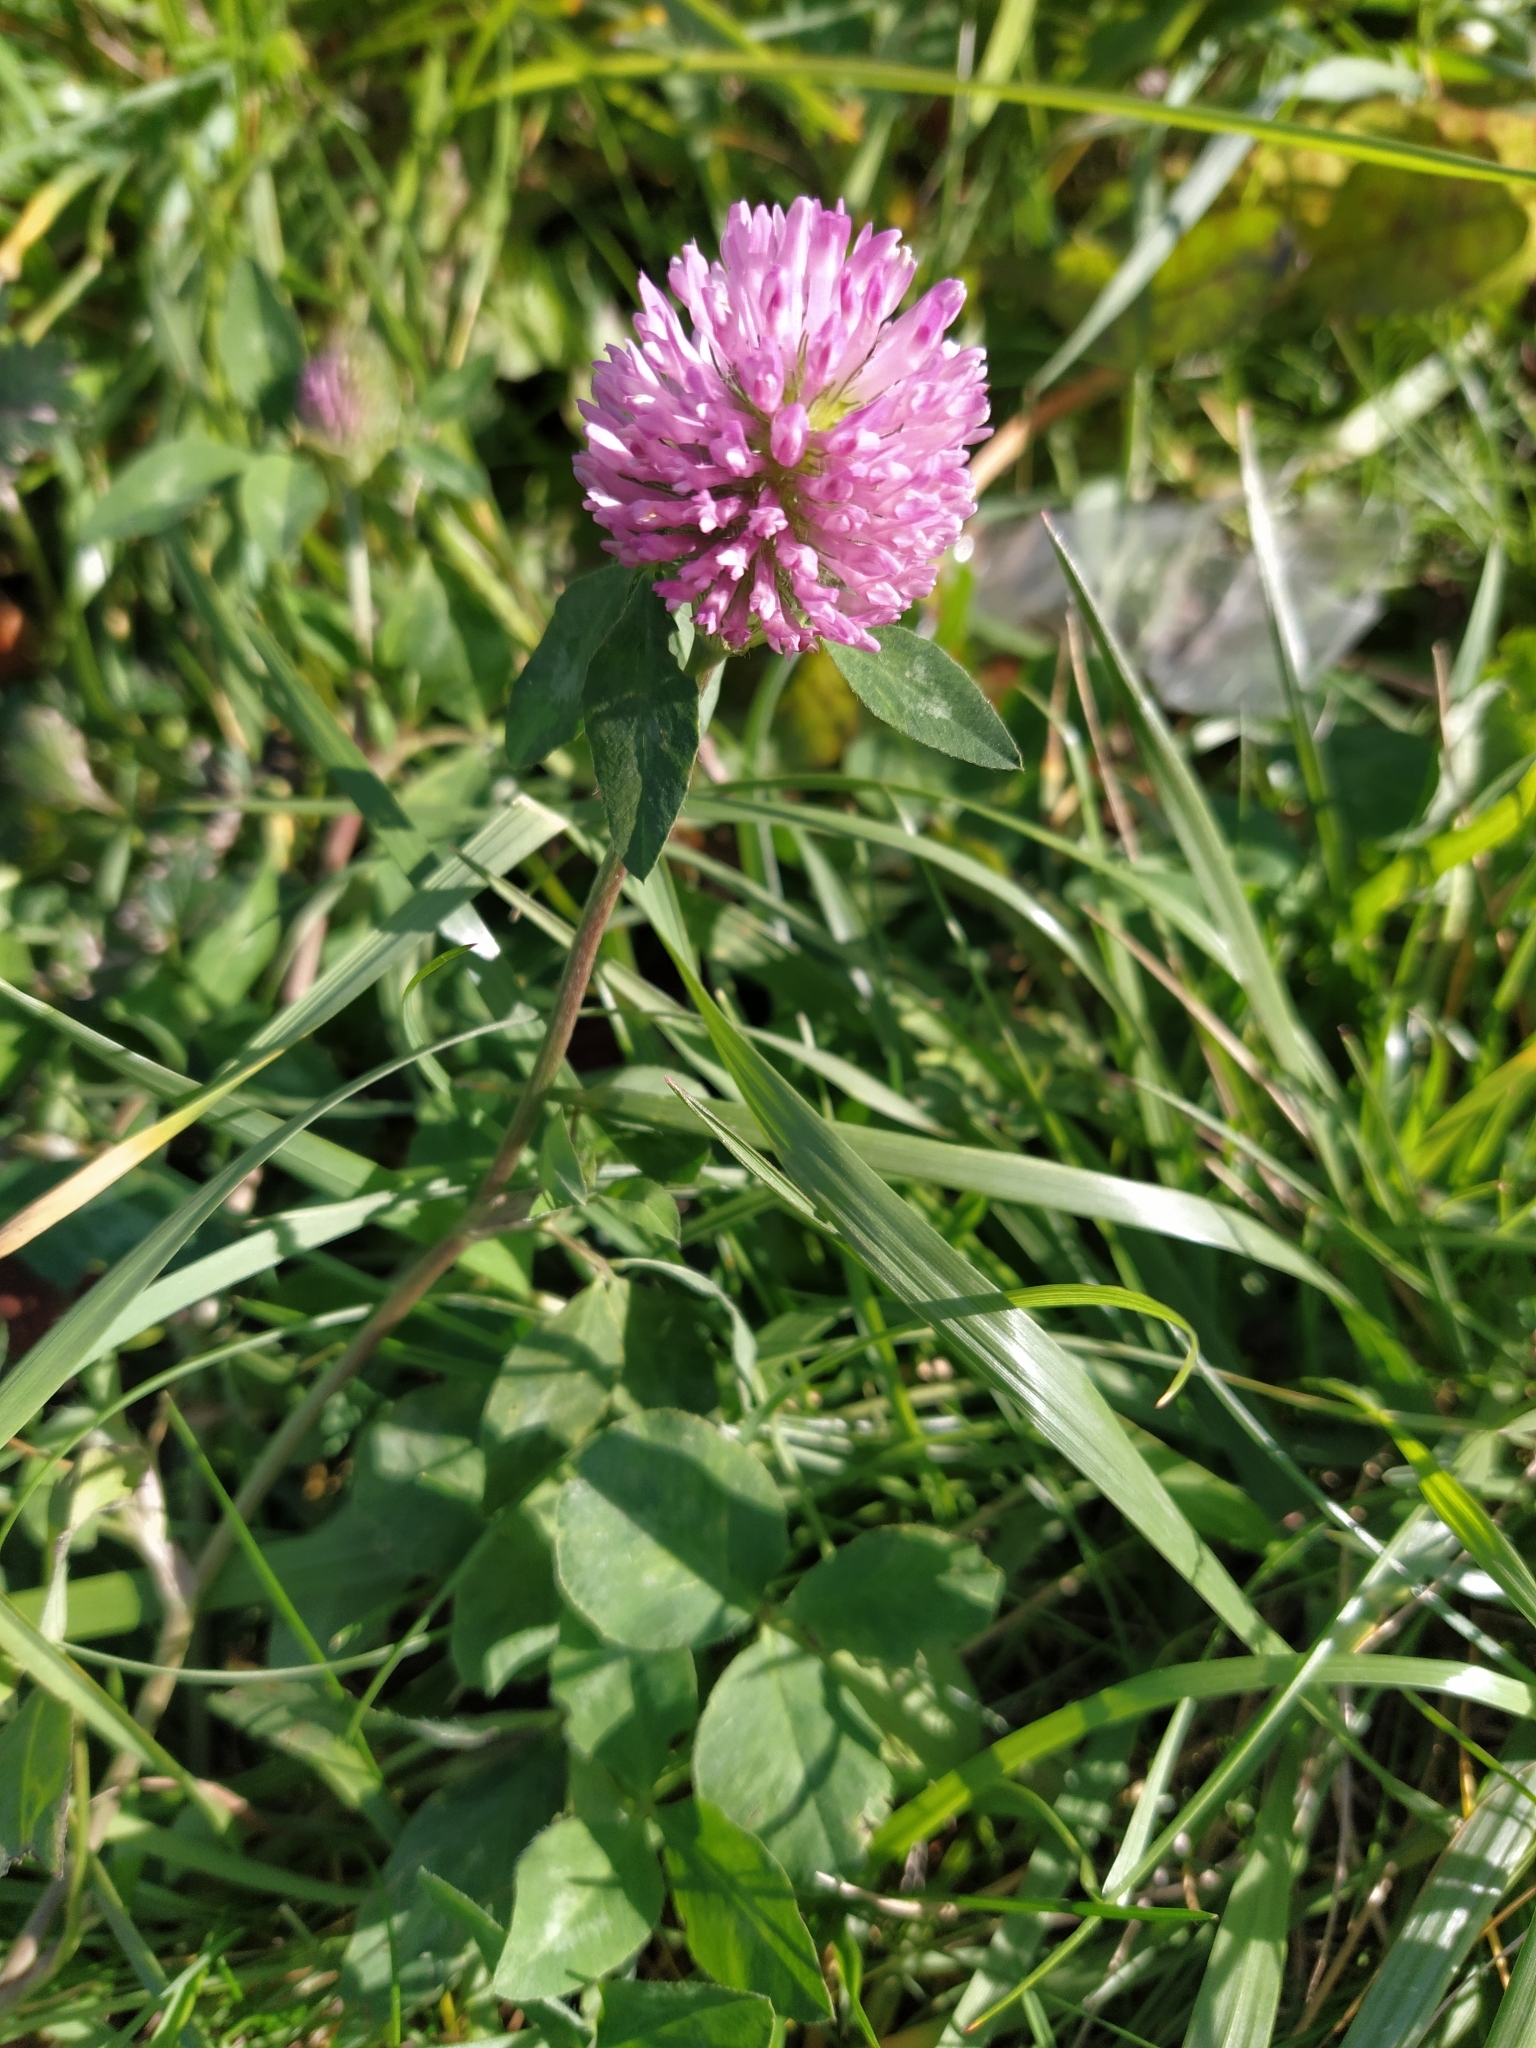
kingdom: Plantae
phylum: Tracheophyta
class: Magnoliopsida
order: Fabales
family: Fabaceae
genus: Trifolium
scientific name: Trifolium pratense
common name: Red clover
